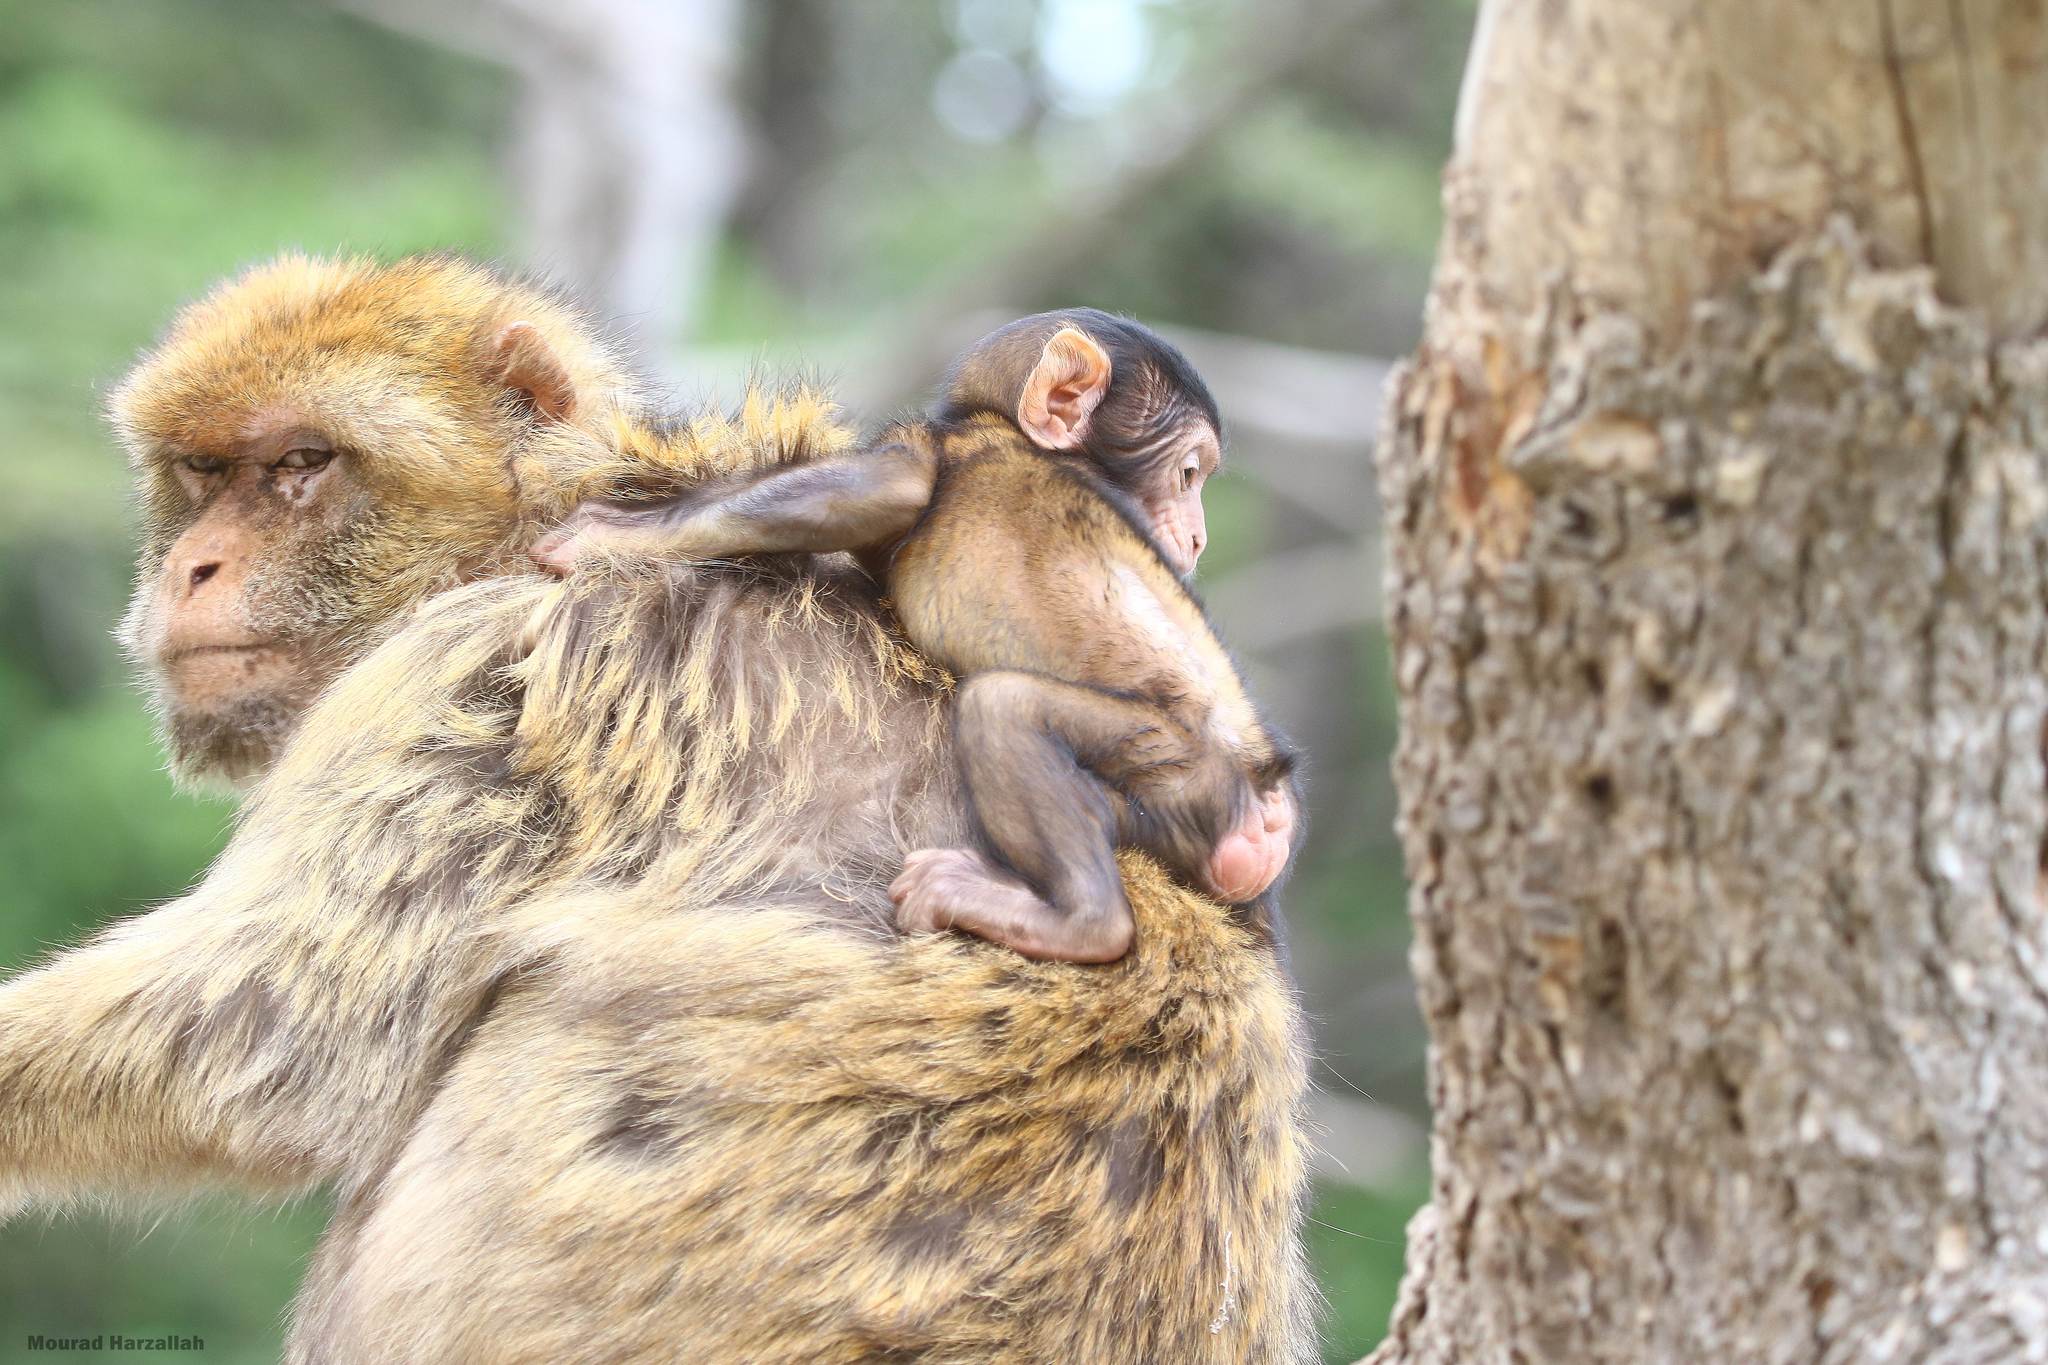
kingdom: Animalia
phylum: Chordata
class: Mammalia
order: Primates
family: Cercopithecidae
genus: Macaca
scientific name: Macaca sylvanus
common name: Barbary macaque
